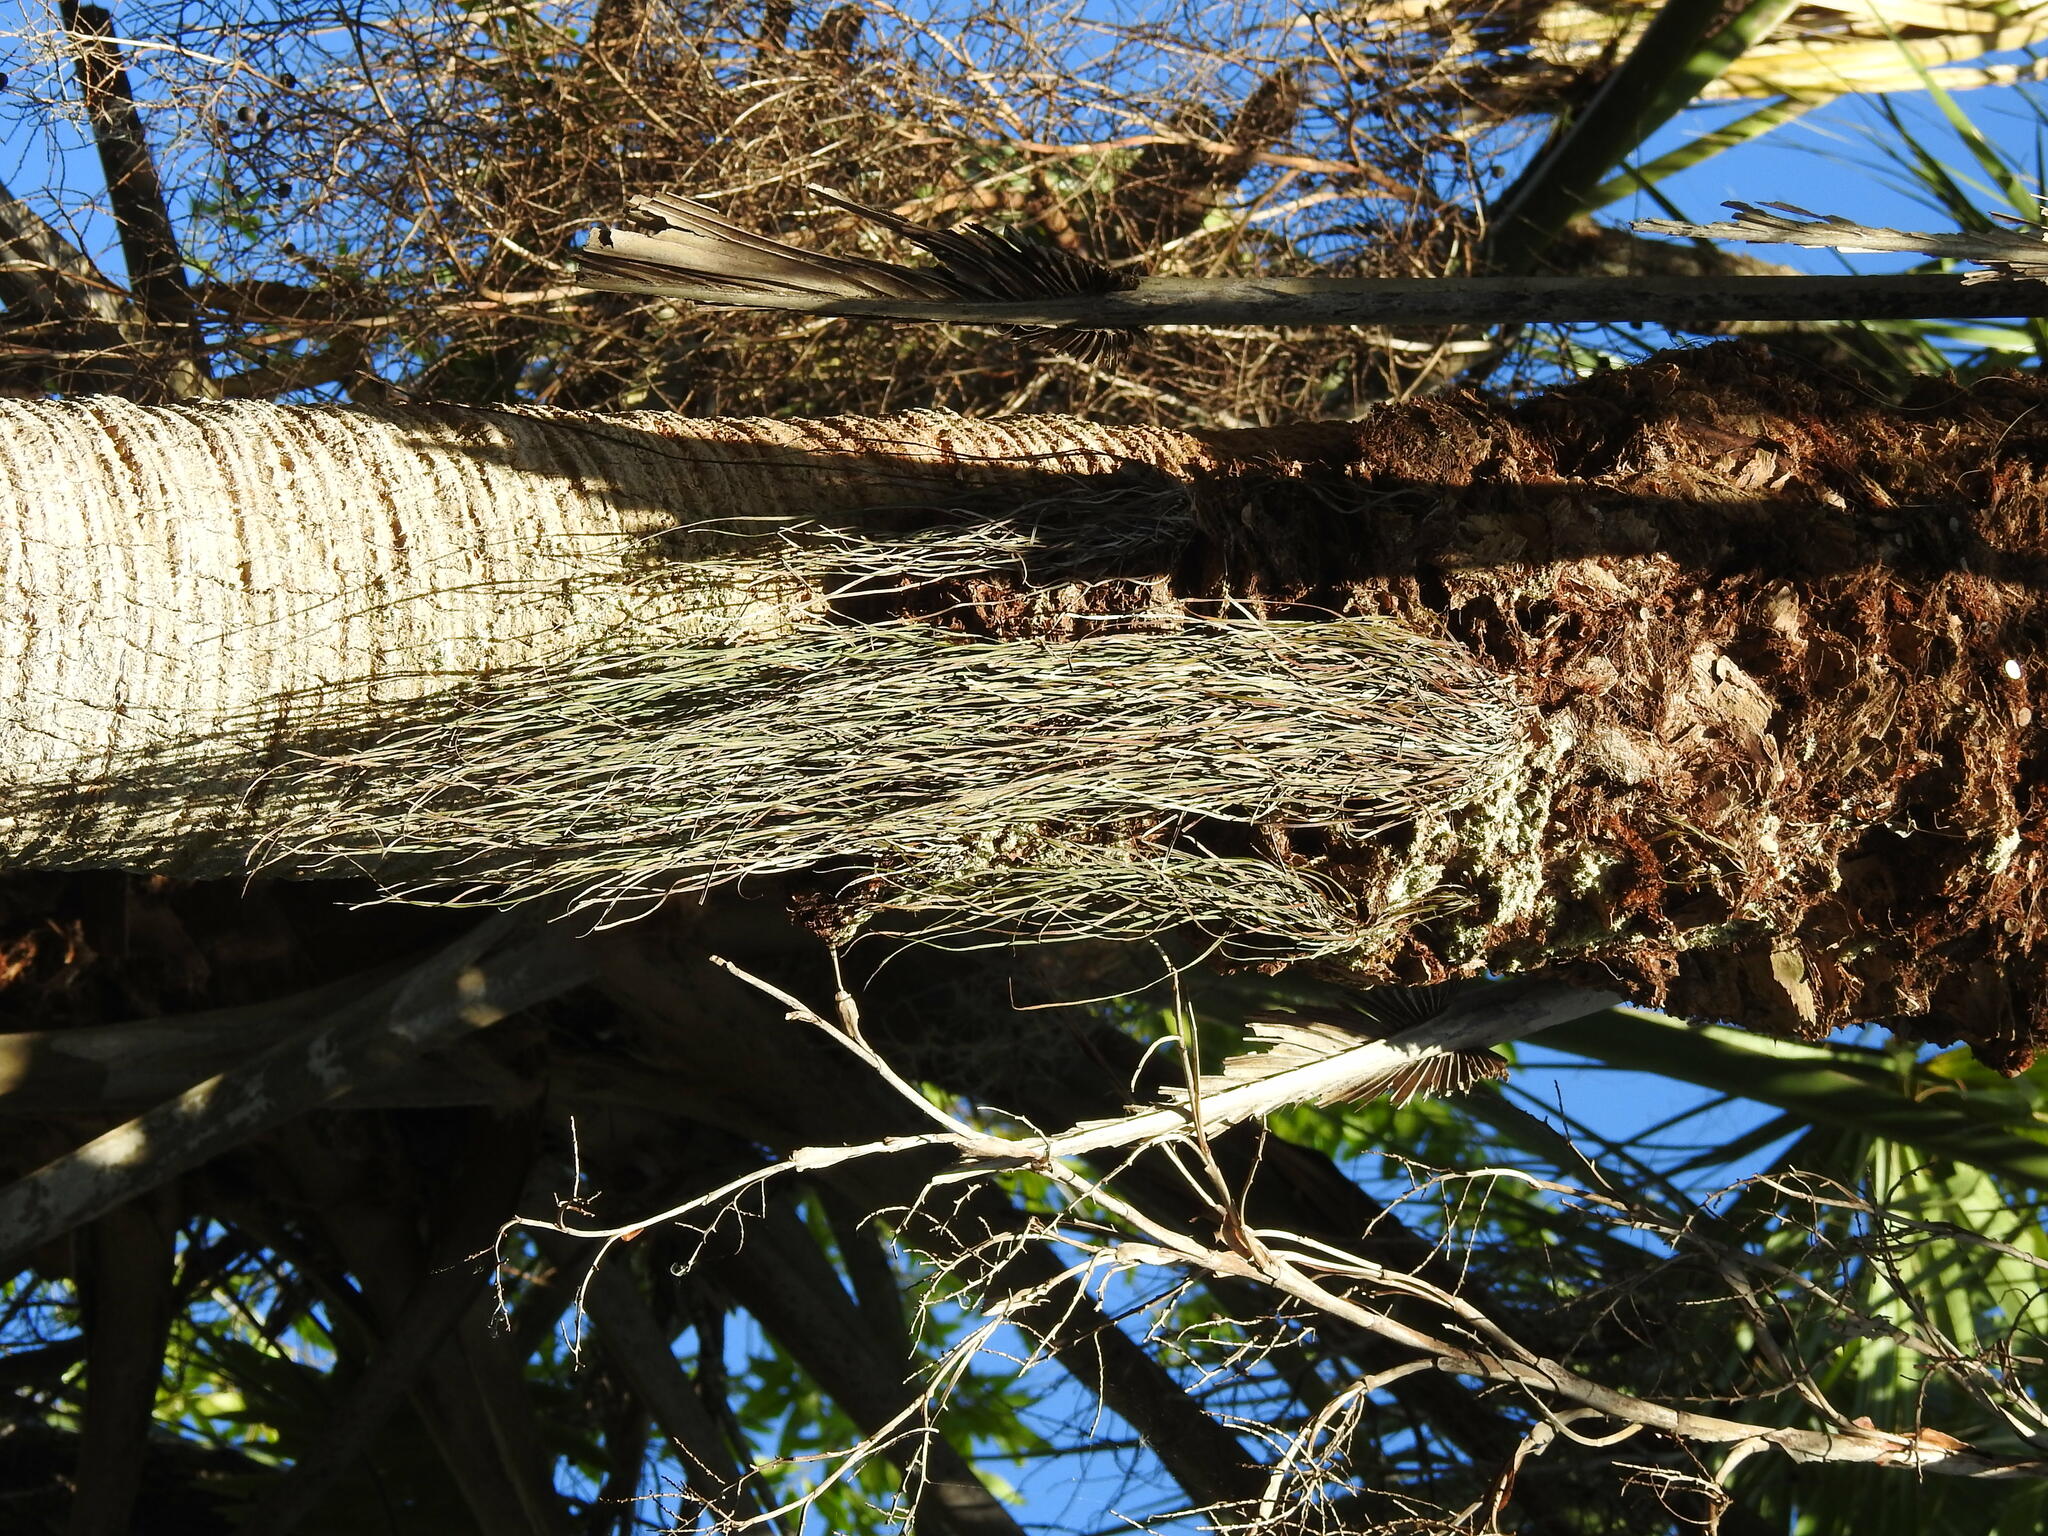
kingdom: Plantae
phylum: Tracheophyta
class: Polypodiopsida
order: Polypodiales
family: Pteridaceae
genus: Vittaria
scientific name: Vittaria lineata
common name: Shoestring fern
